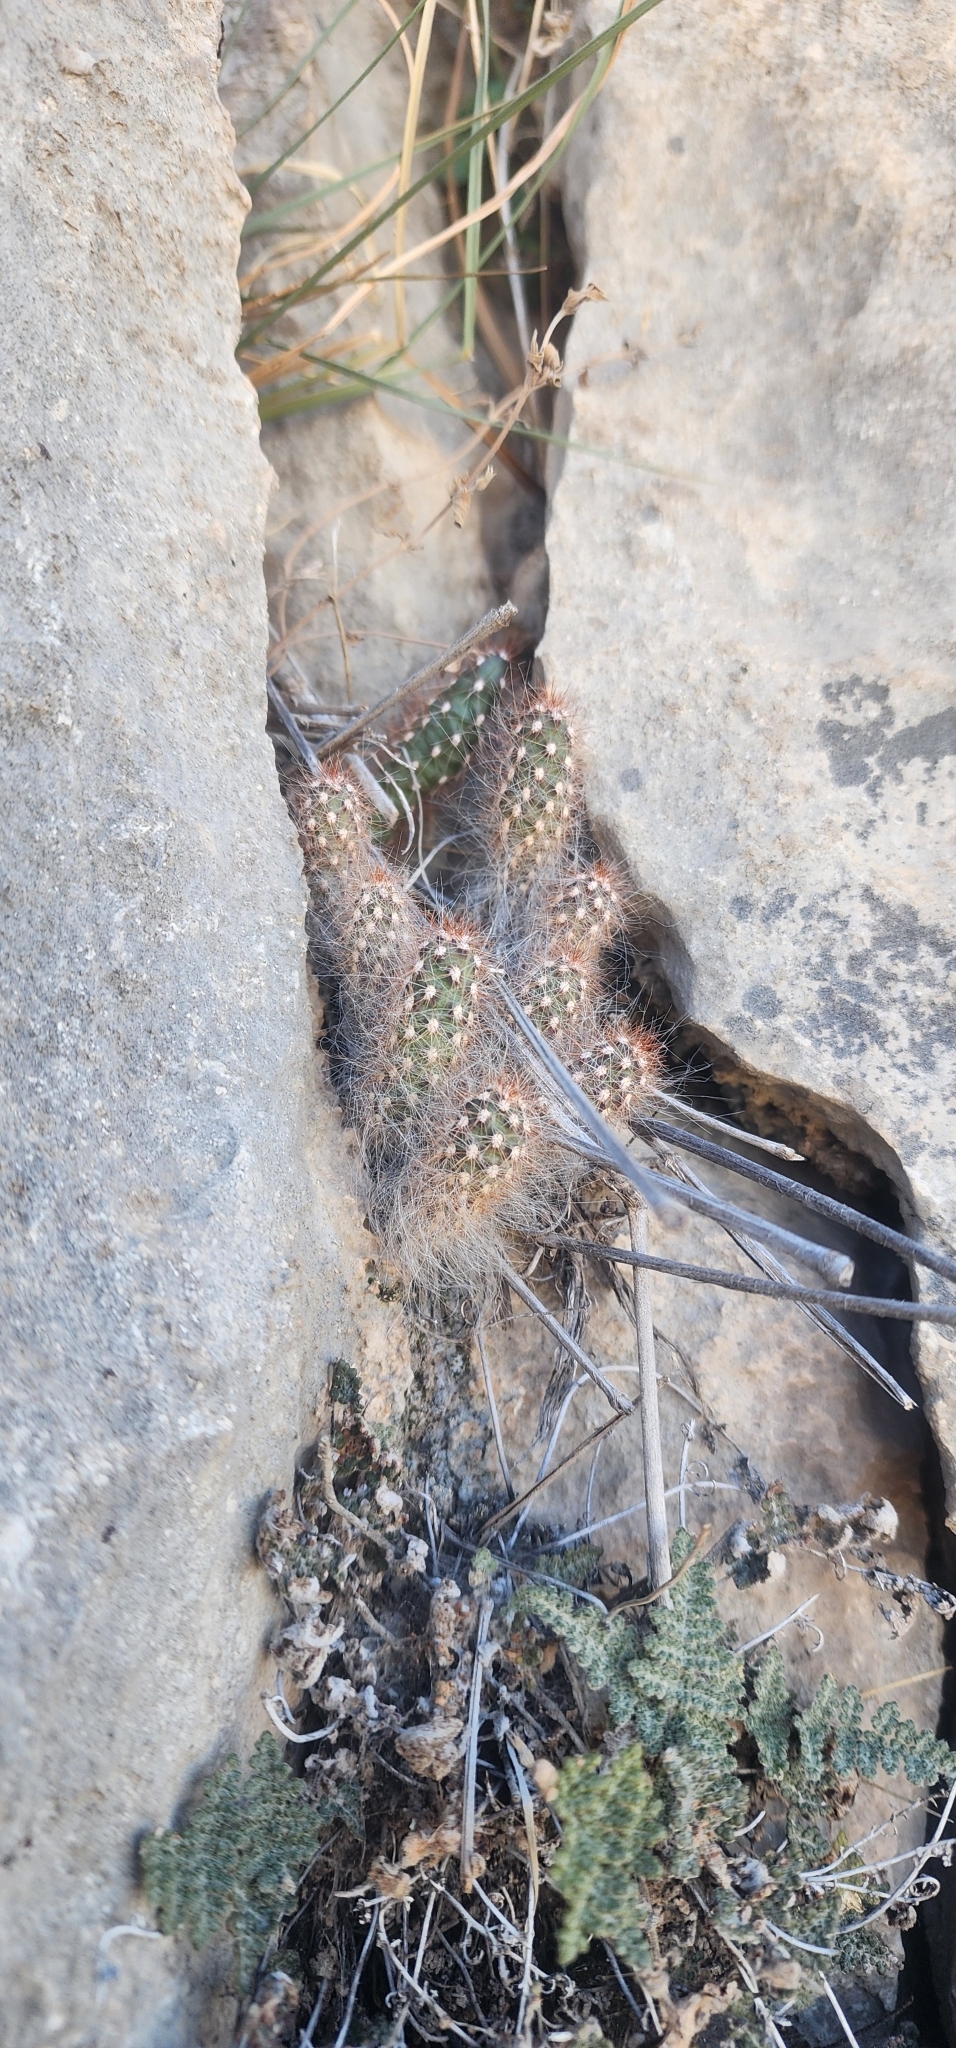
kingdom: Plantae
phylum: Tracheophyta
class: Magnoliopsida
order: Caryophyllales
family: Cactaceae
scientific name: Cactaceae
